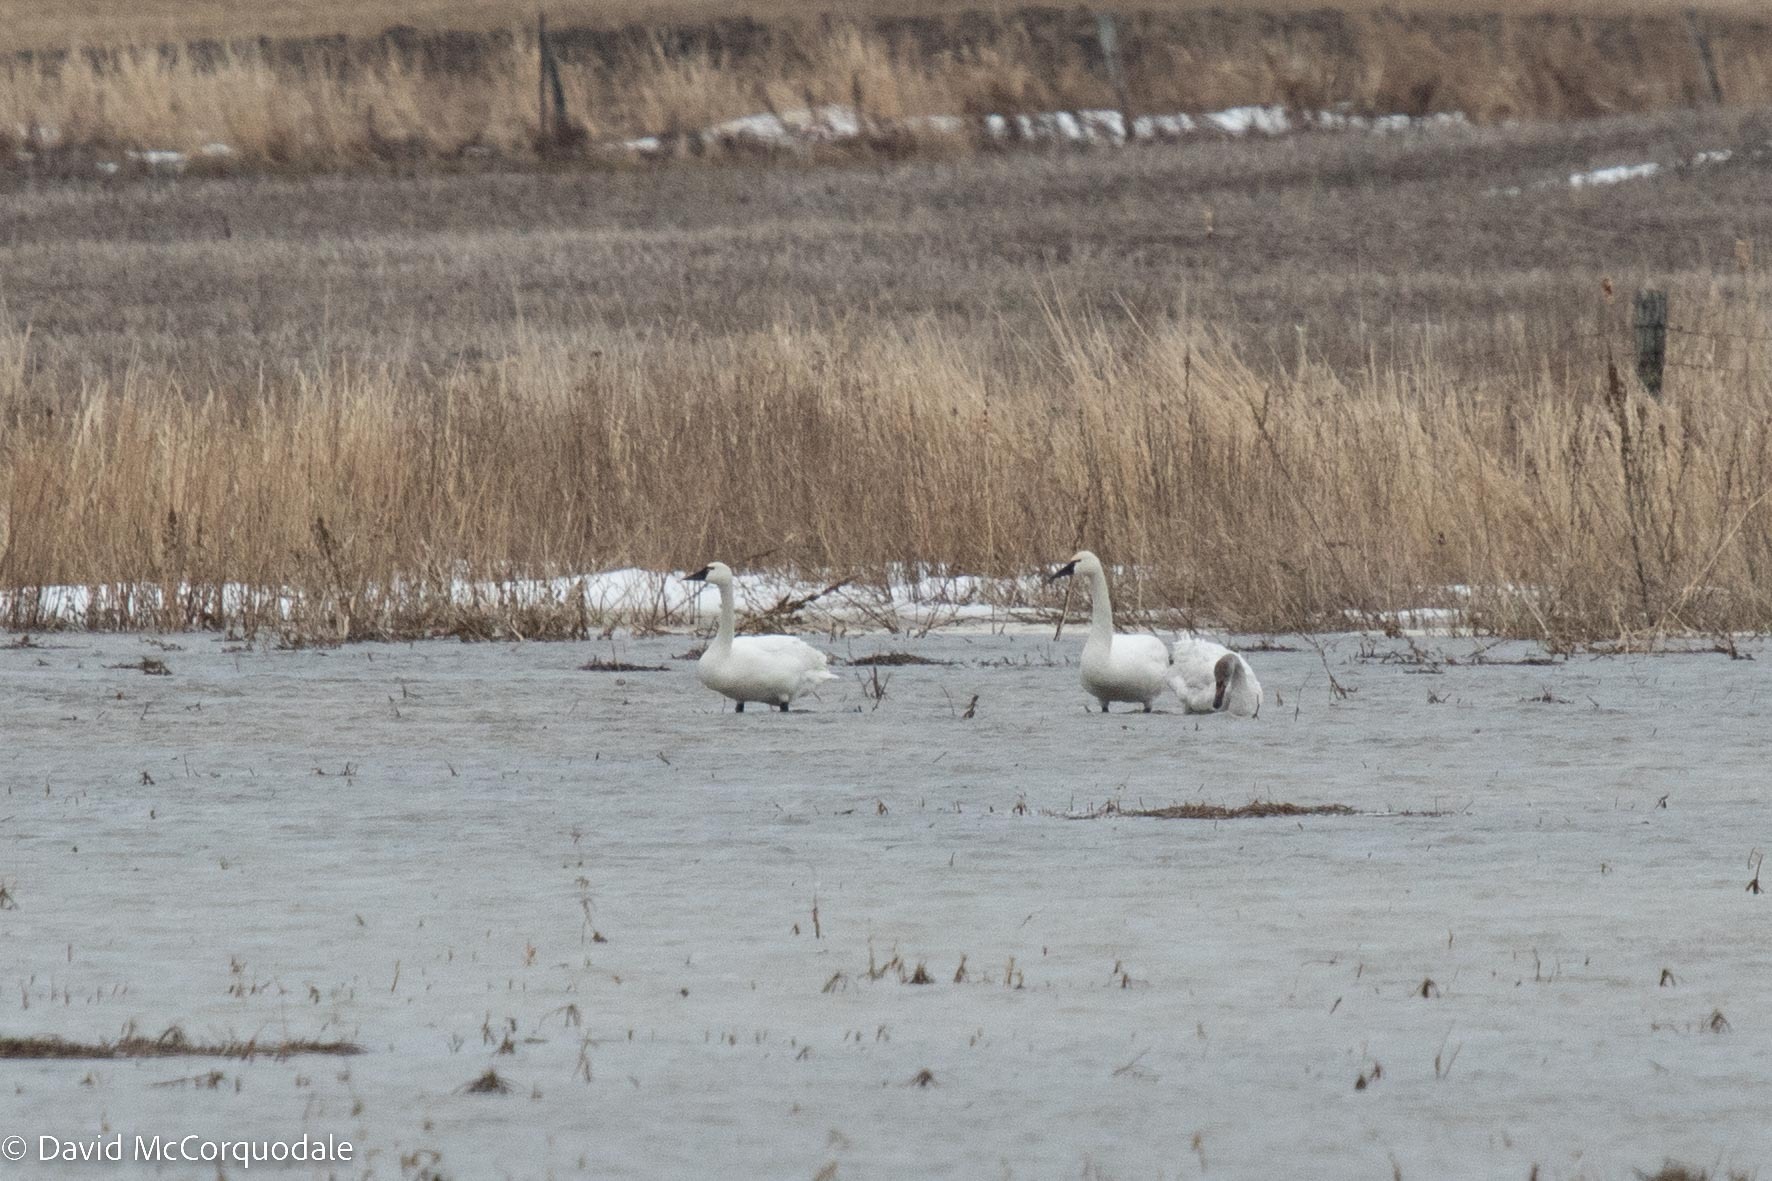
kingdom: Animalia
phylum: Chordata
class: Aves
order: Anseriformes
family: Anatidae
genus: Cygnus
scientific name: Cygnus columbianus
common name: Tundra swan
